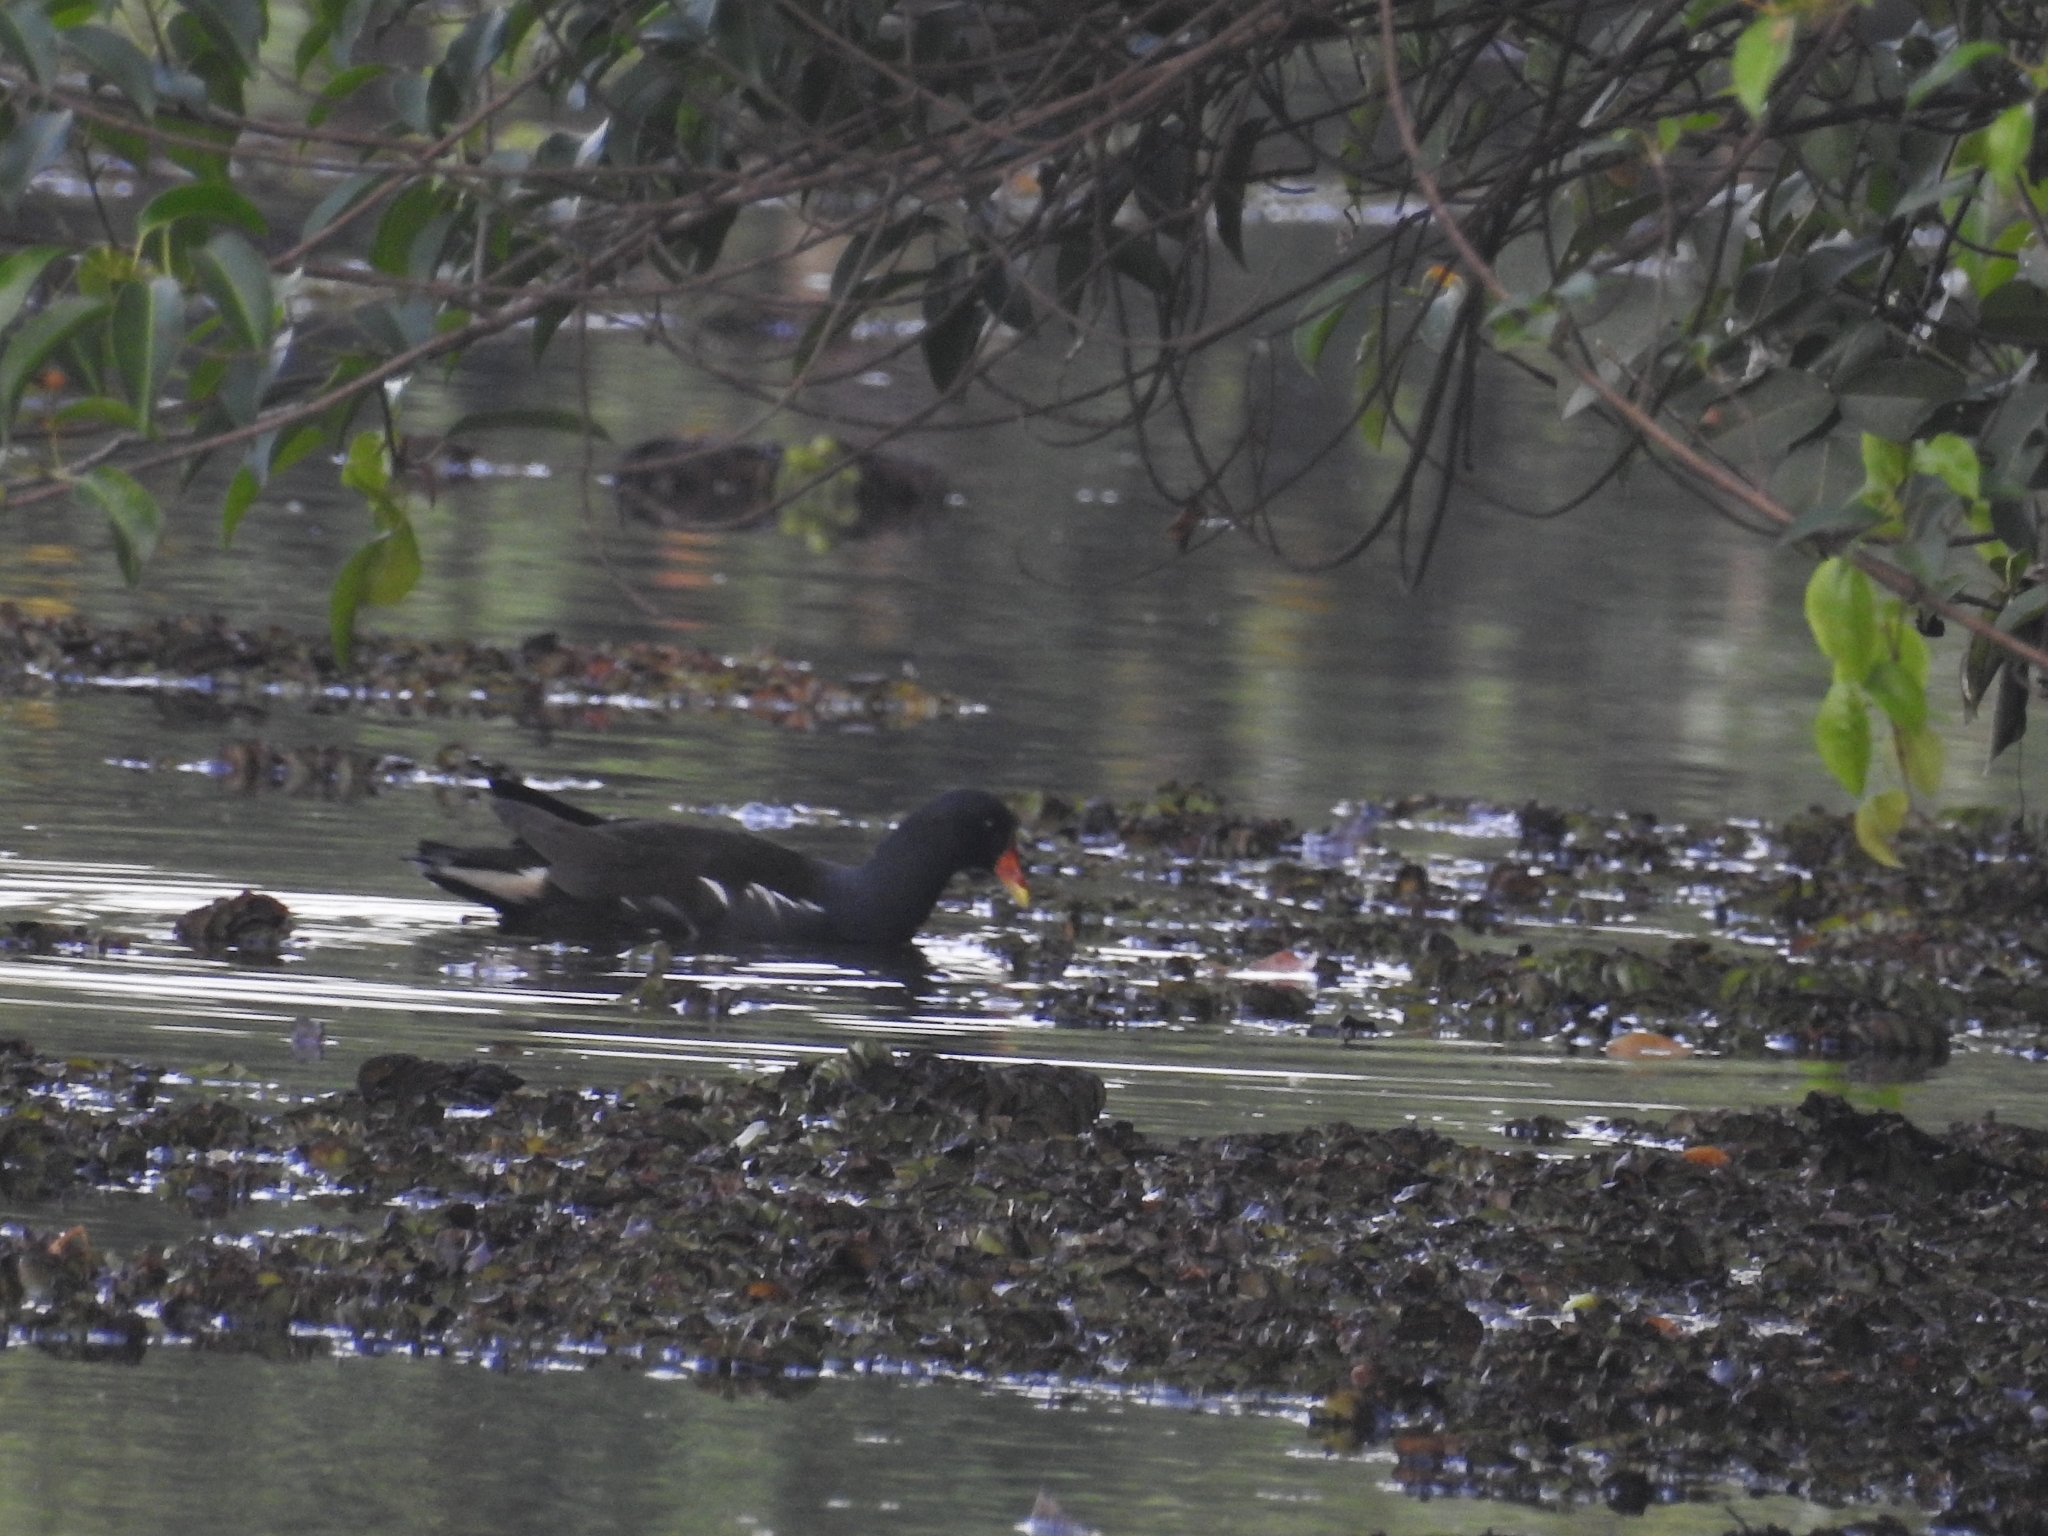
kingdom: Animalia
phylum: Chordata
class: Aves
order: Gruiformes
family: Rallidae
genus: Gallinula
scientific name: Gallinula chloropus
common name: Common moorhen
